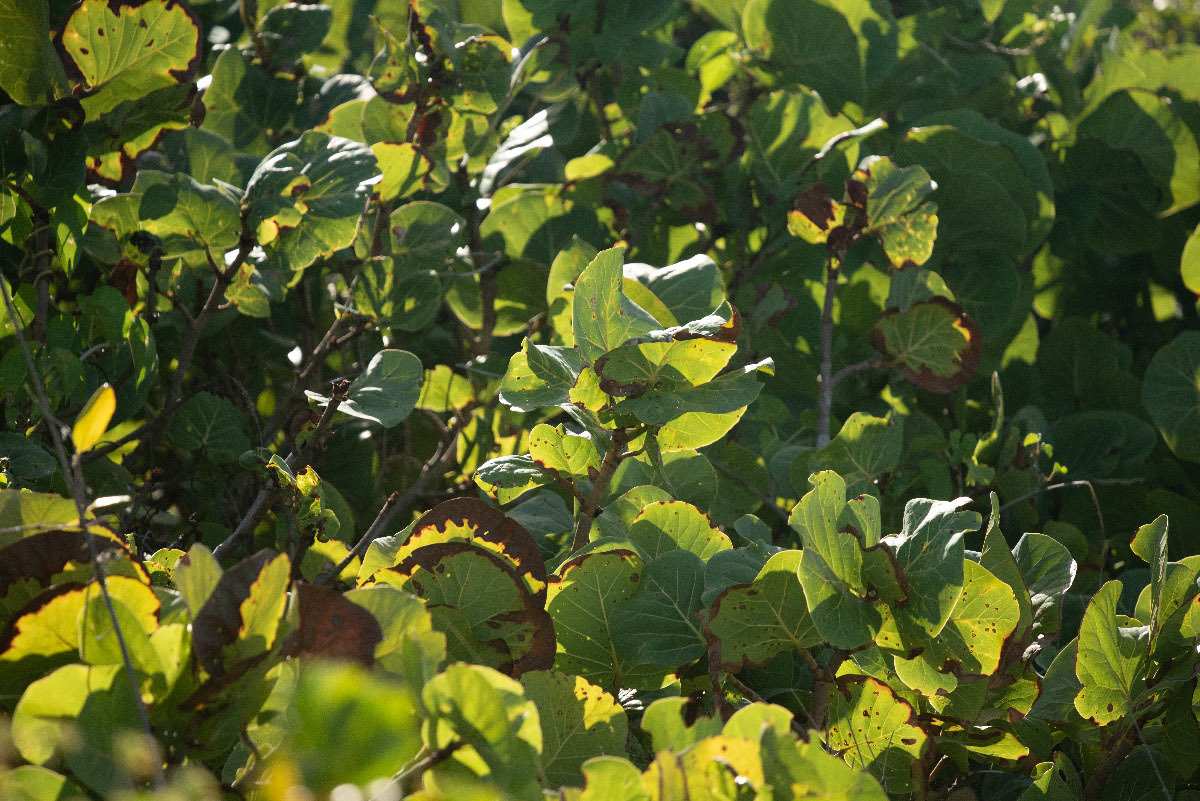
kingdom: Plantae
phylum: Tracheophyta
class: Magnoliopsida
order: Caryophyllales
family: Polygonaceae
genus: Coccoloba
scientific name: Coccoloba uvifera
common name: Seagrape
